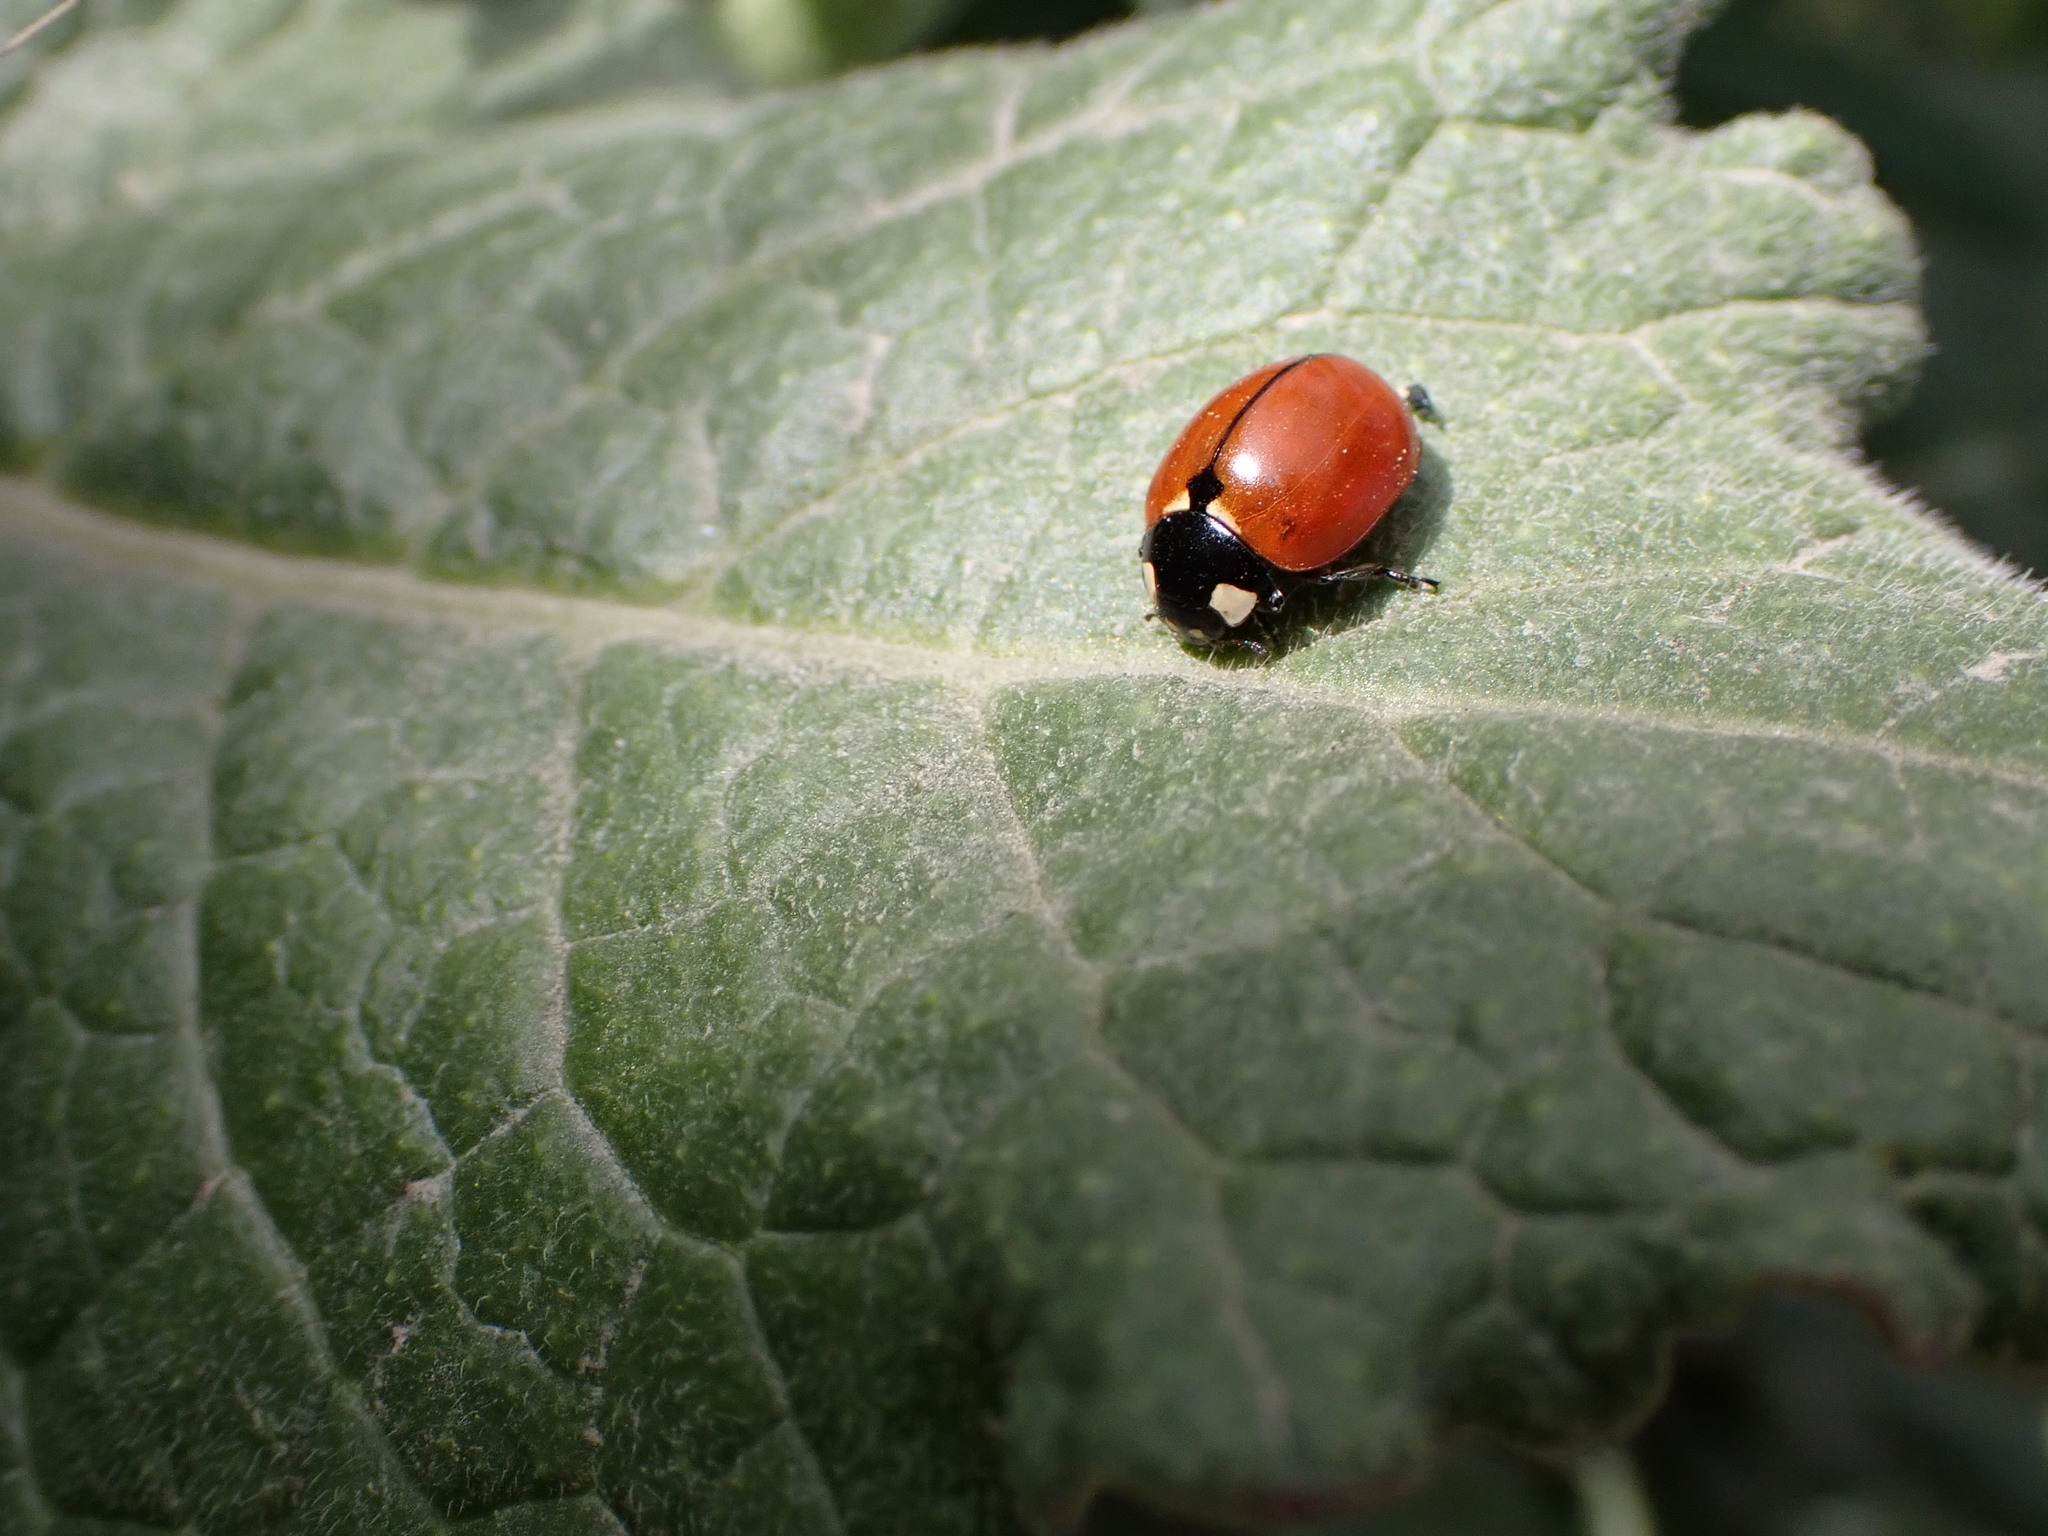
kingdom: Animalia
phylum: Arthropoda
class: Insecta
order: Coleoptera
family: Coccinellidae
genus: Coccinella
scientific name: Coccinella californica
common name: Lady beetle
